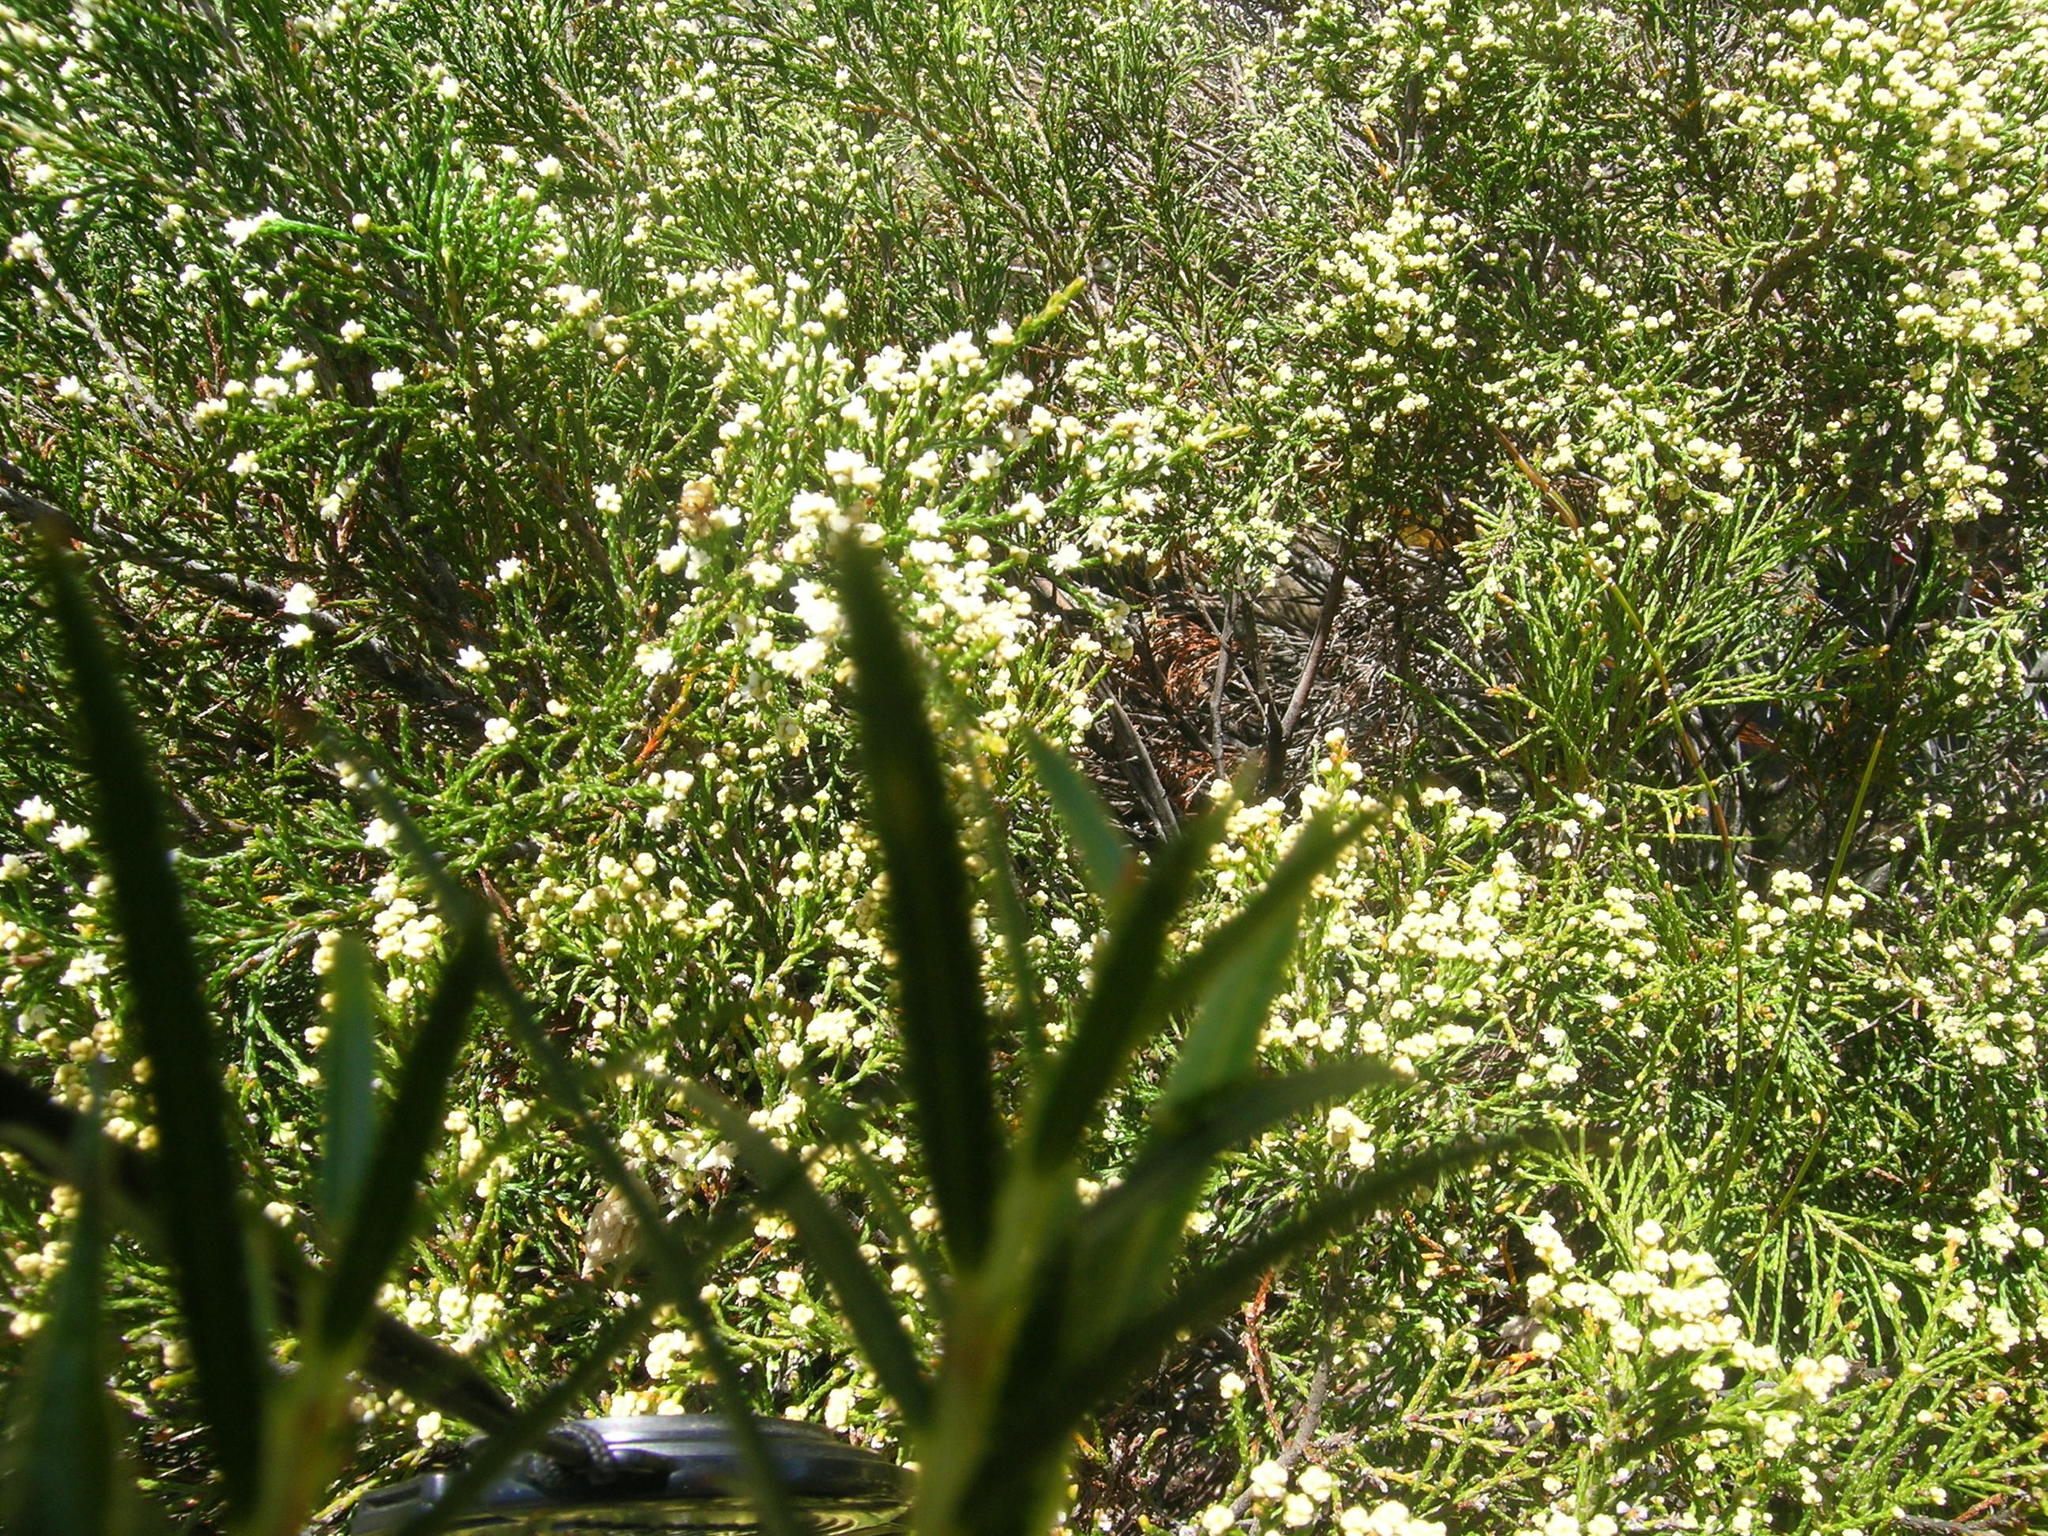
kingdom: Plantae
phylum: Tracheophyta
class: Magnoliopsida
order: Bruniales
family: Bruniaceae
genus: Brunia
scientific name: Brunia schlechteri
